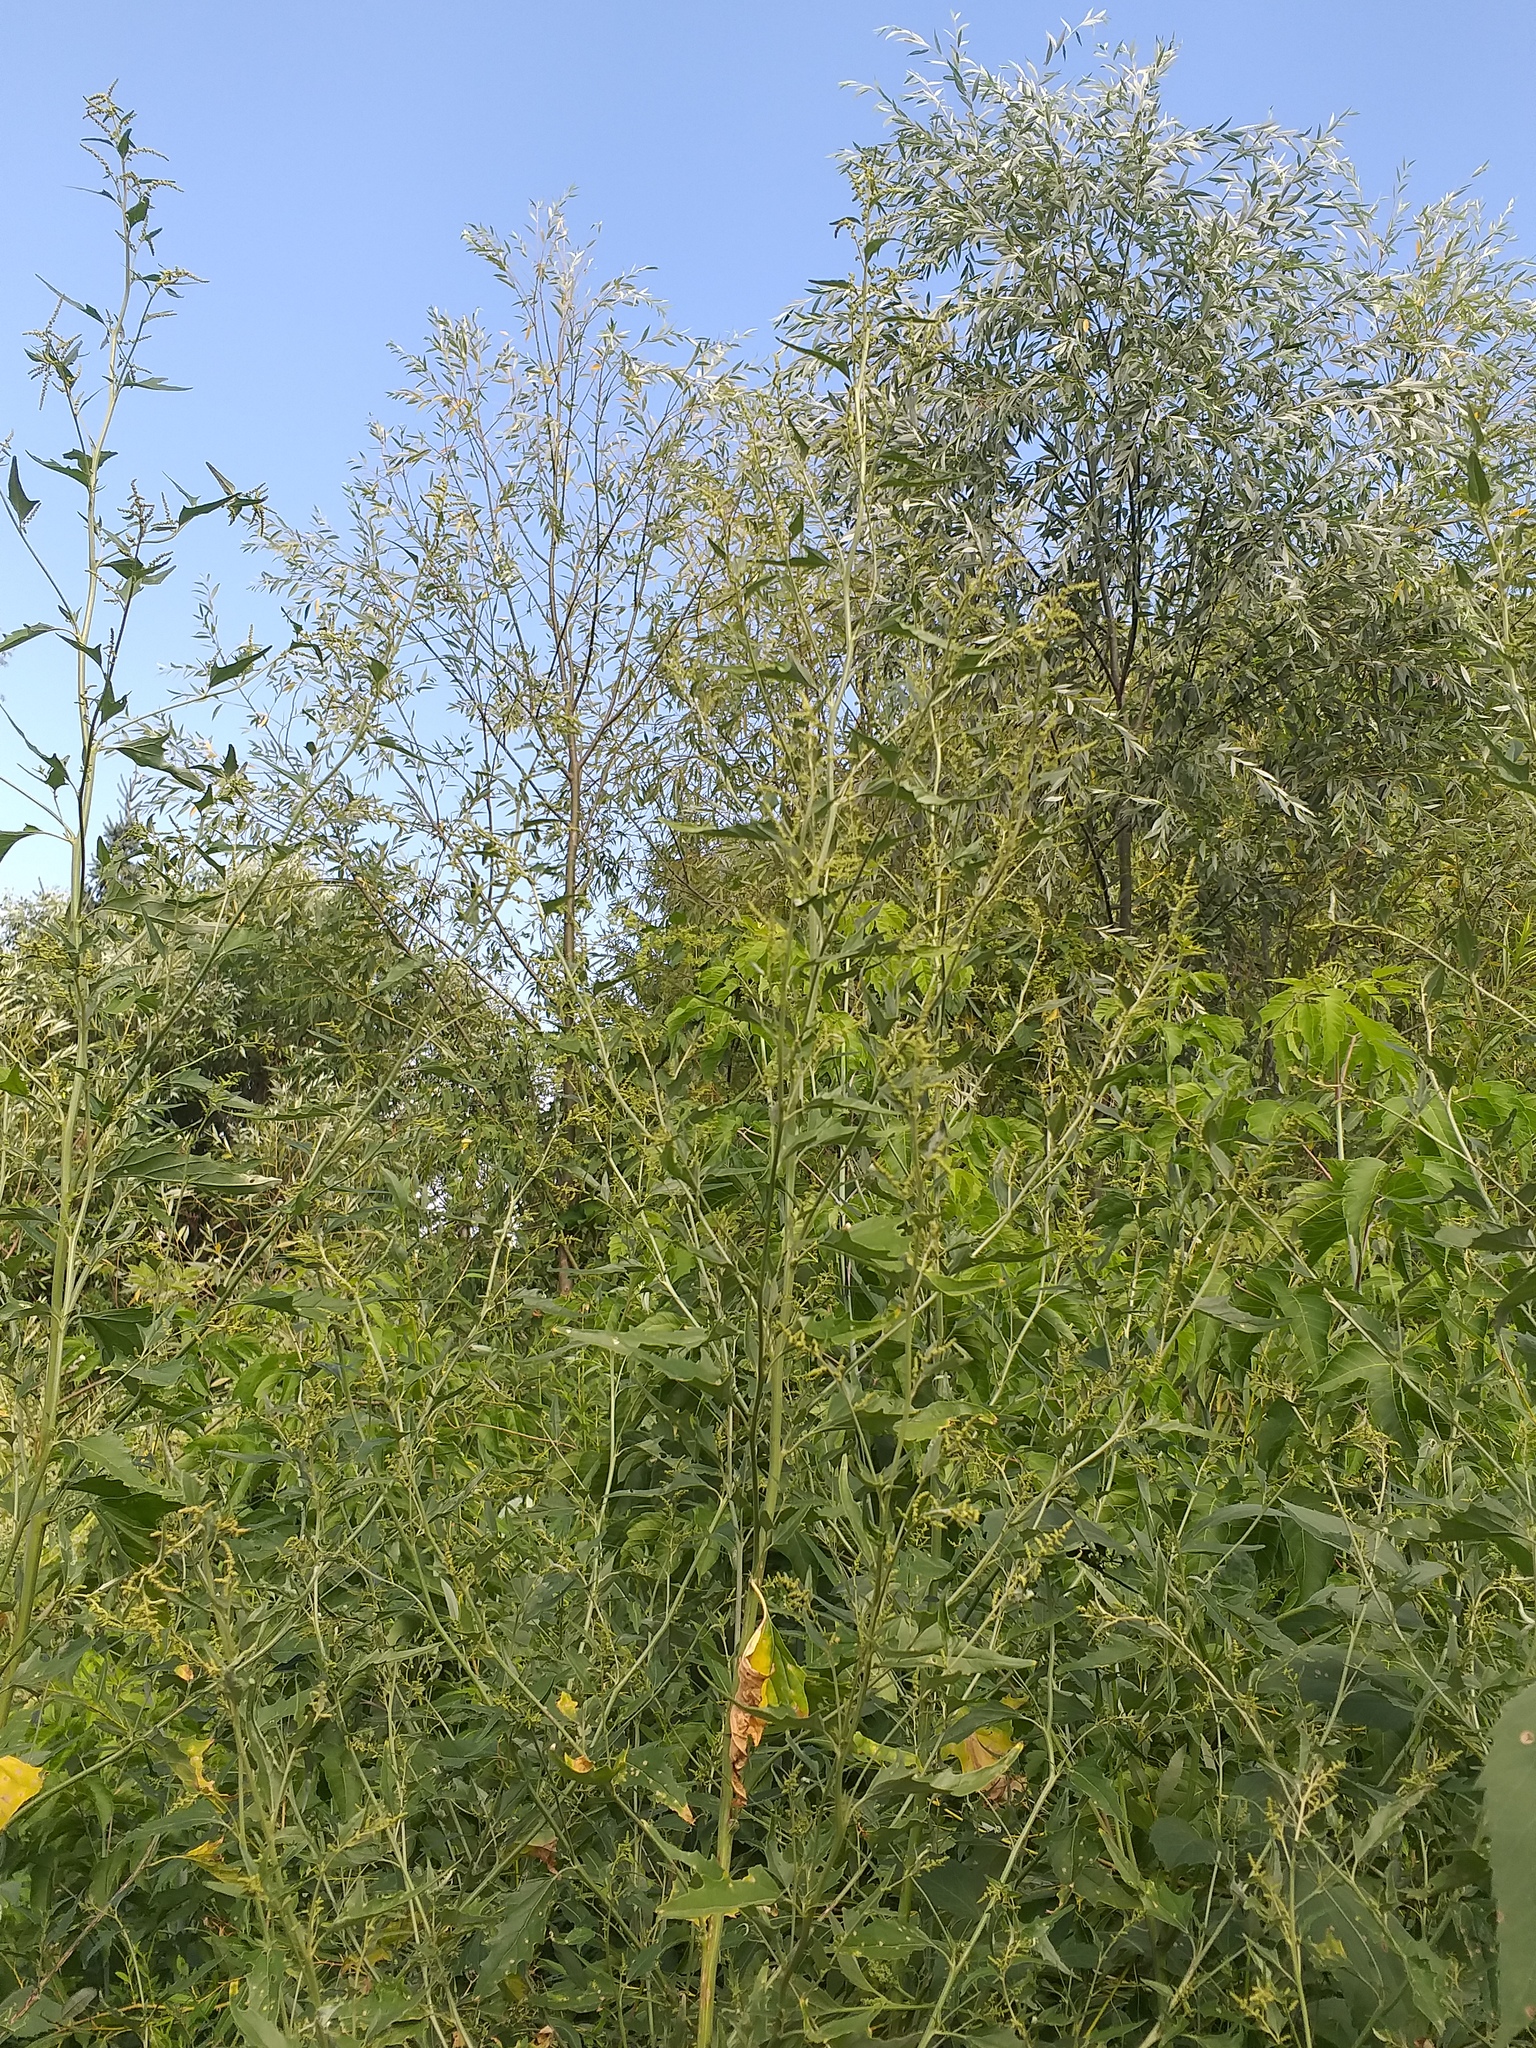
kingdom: Plantae
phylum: Tracheophyta
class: Magnoliopsida
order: Caryophyllales
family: Amaranthaceae
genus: Atriplex
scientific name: Atriplex sagittata
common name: Purple orache
